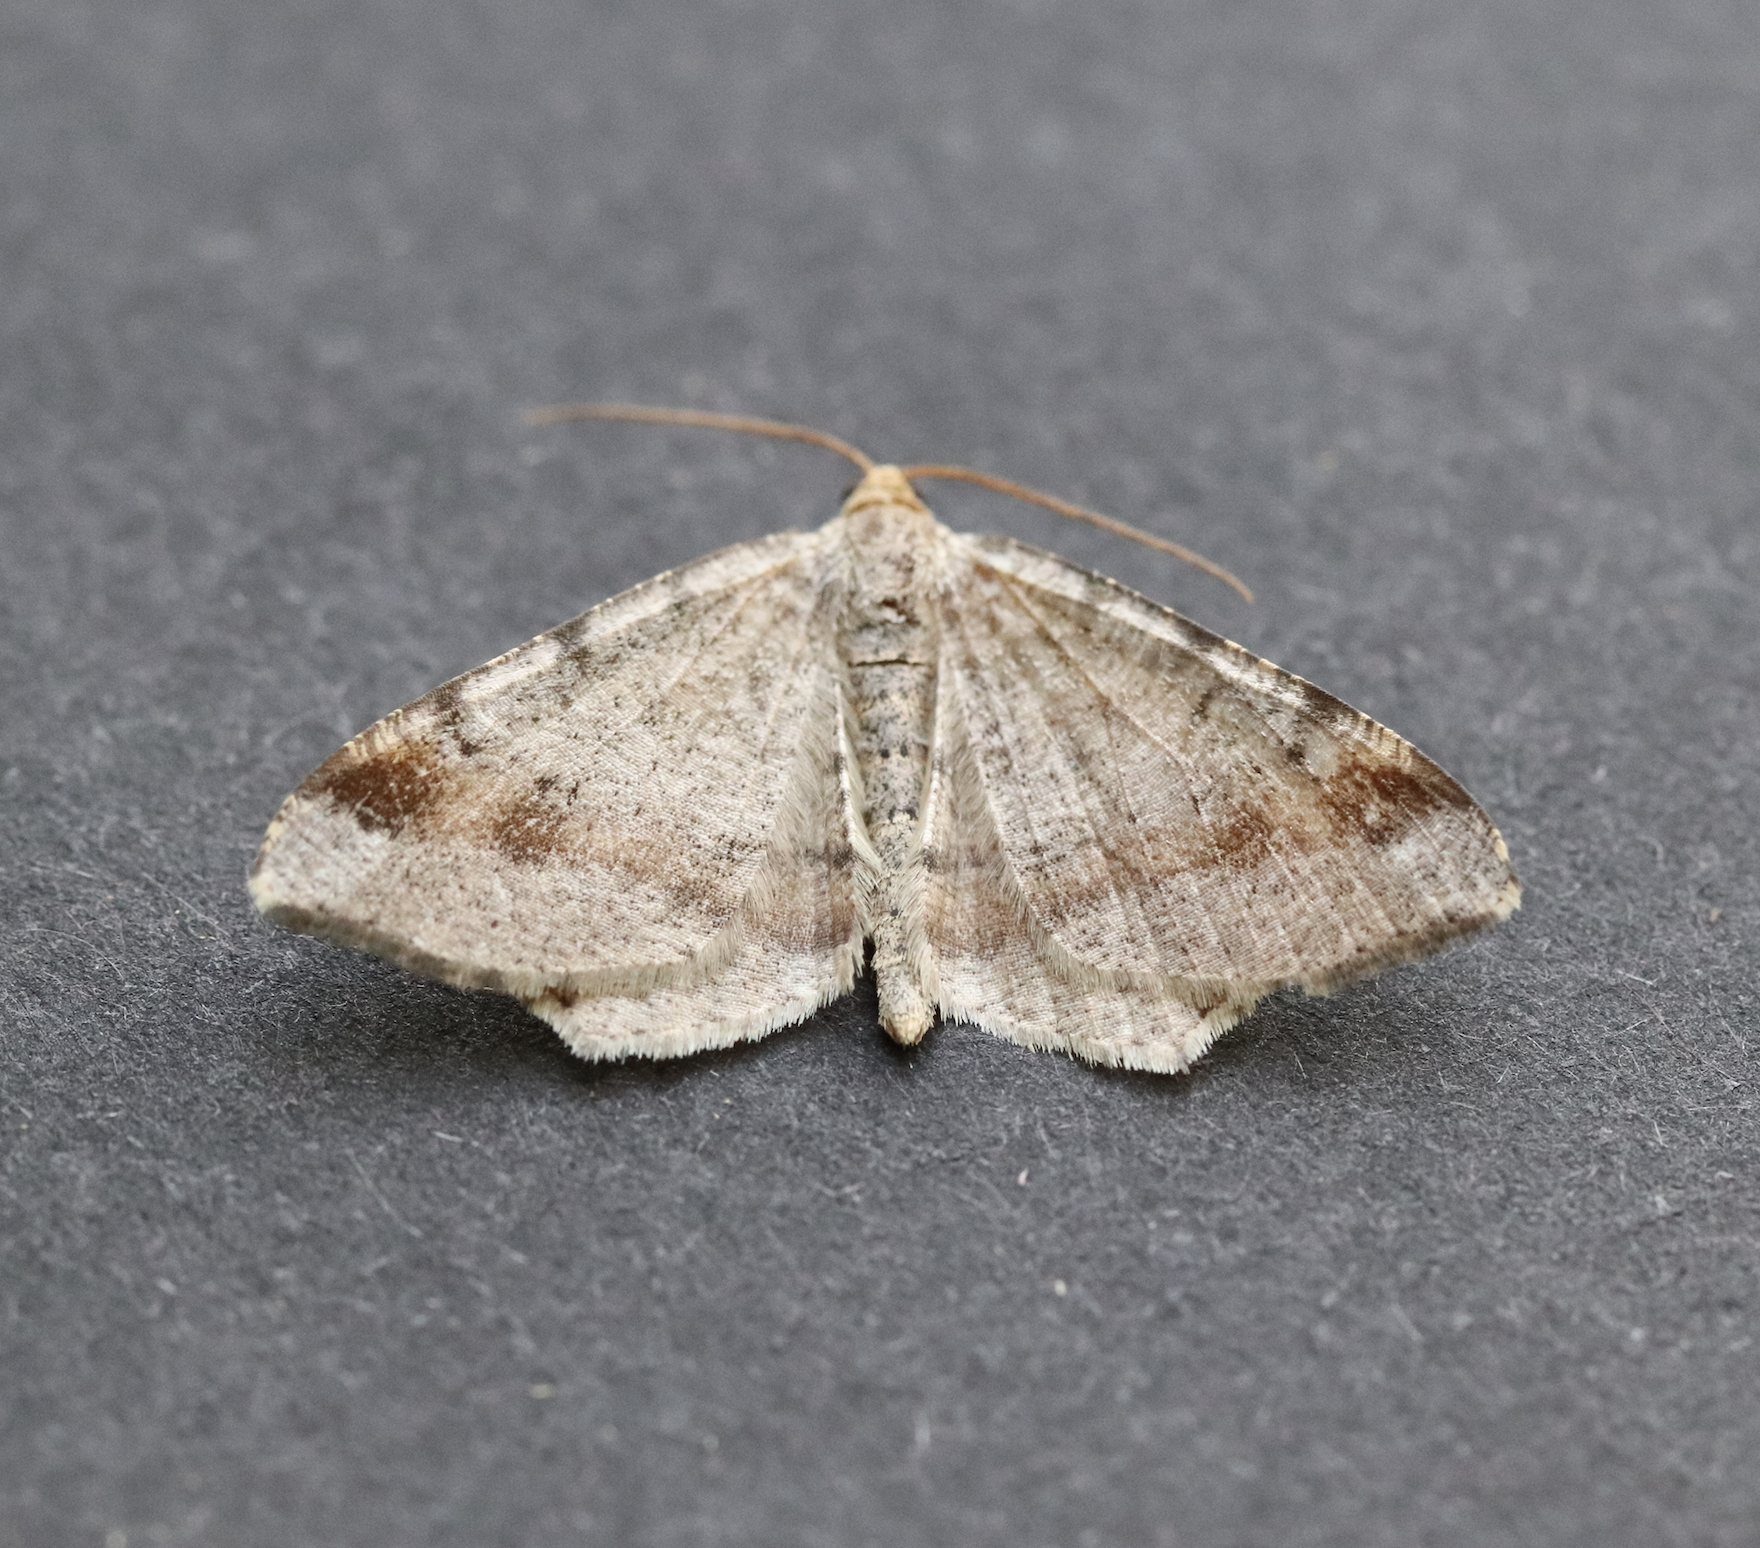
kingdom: Animalia
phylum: Arthropoda
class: Insecta
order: Lepidoptera
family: Geometridae
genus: Macaria
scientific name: Macaria liturata
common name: Tawny-barred angle
